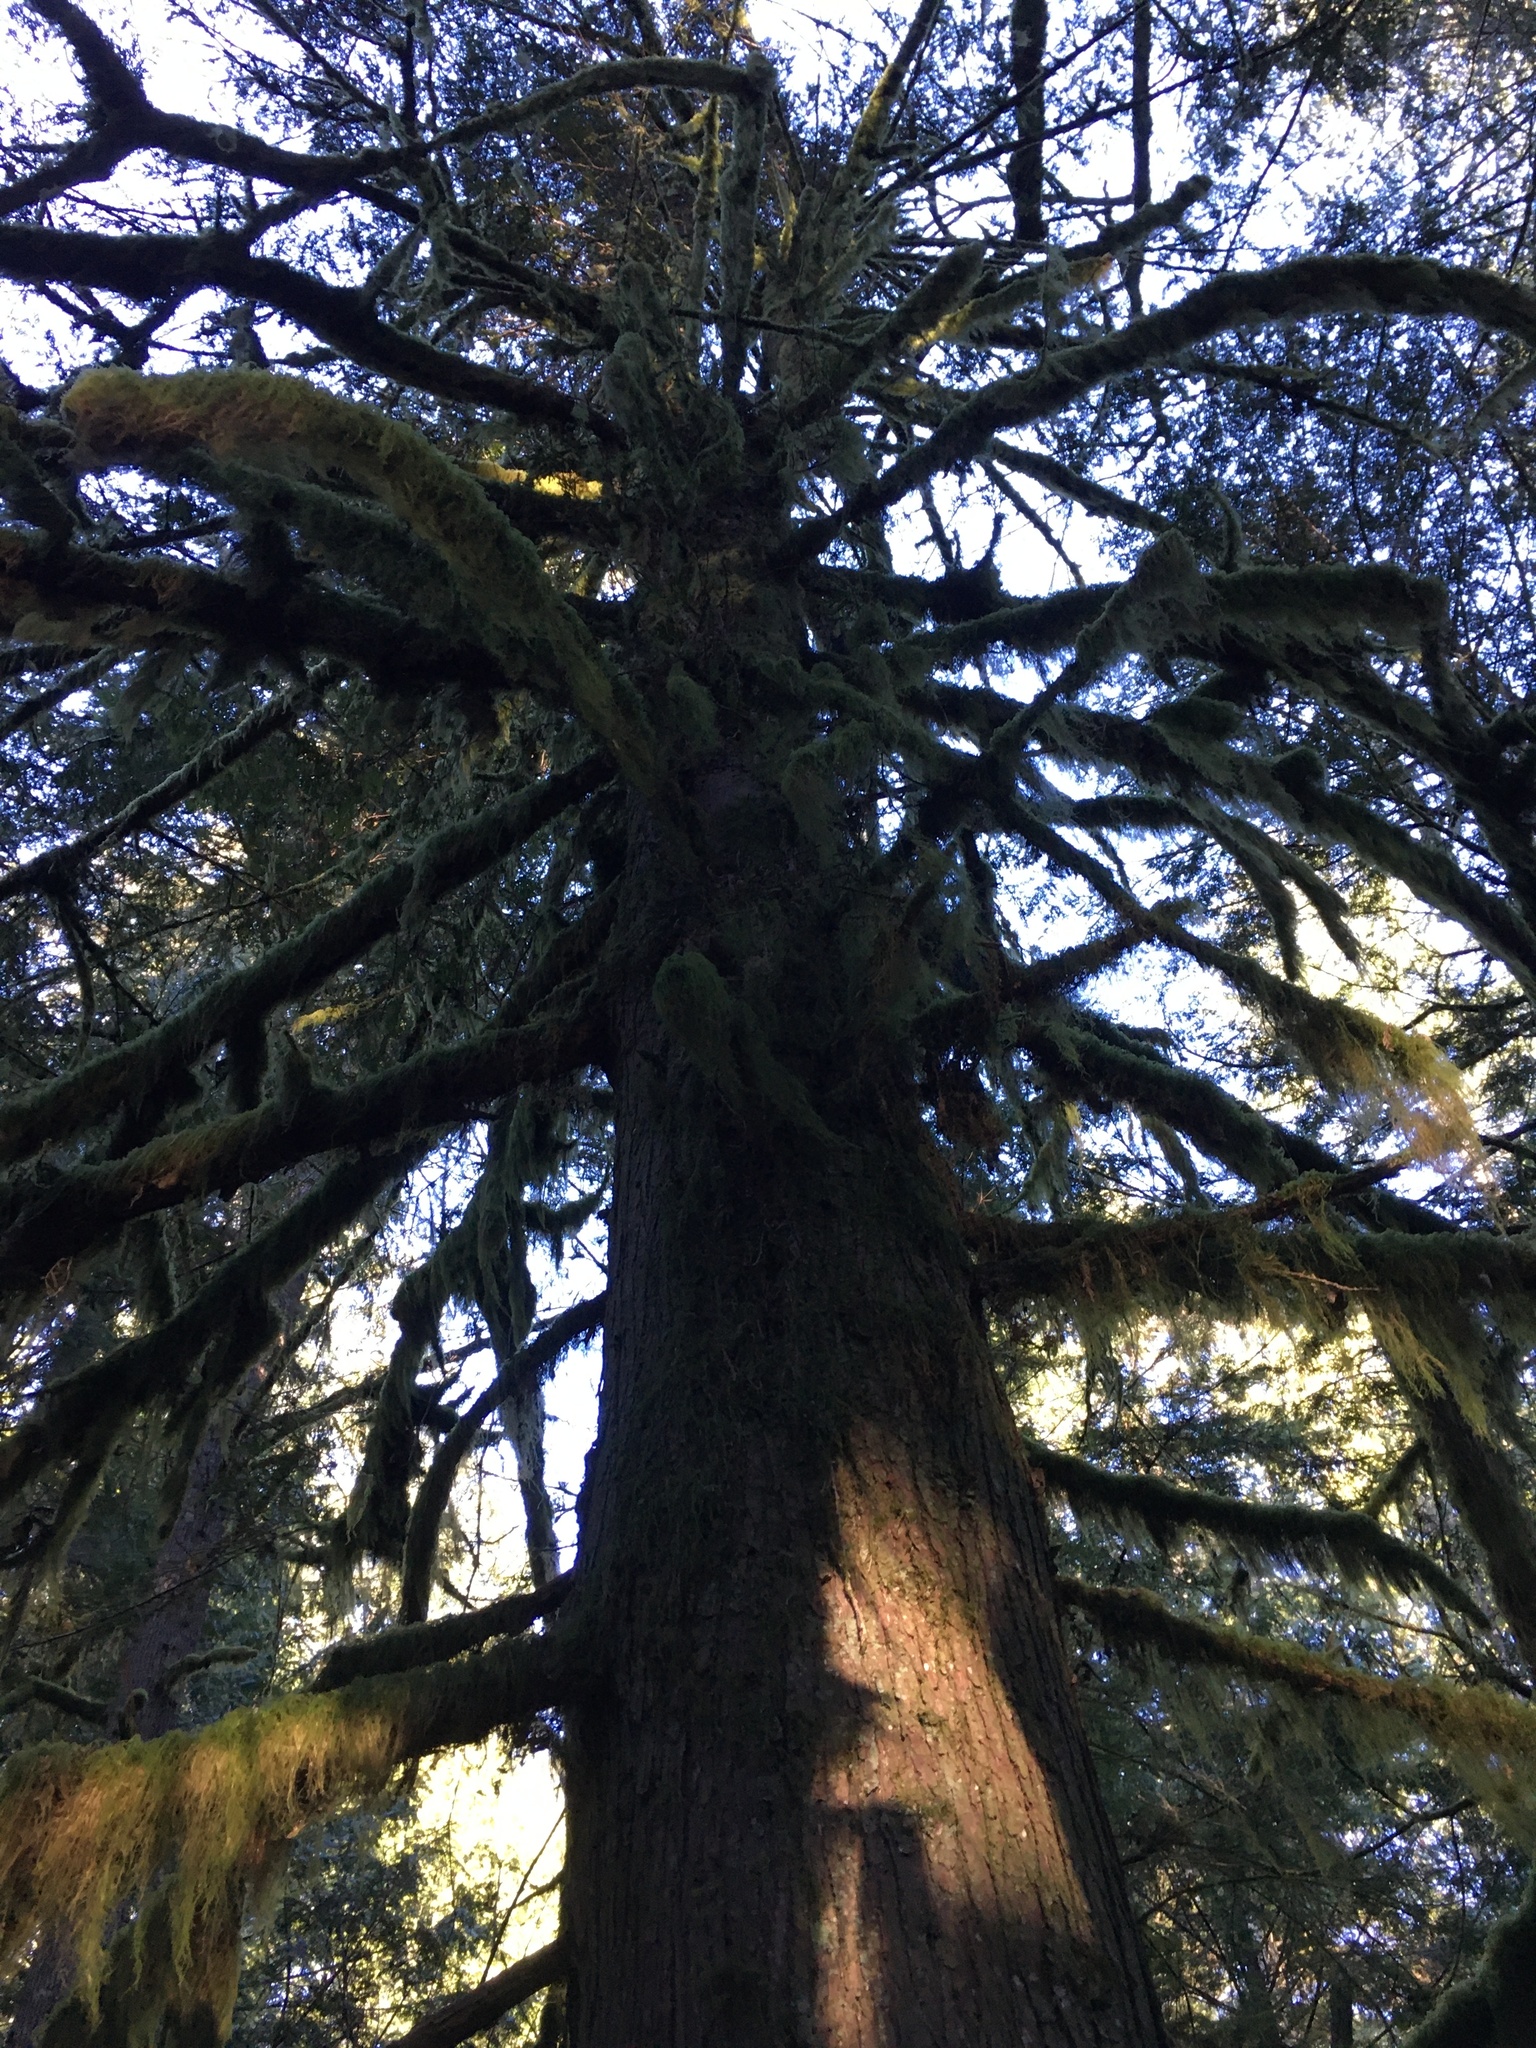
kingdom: Plantae
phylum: Tracheophyta
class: Pinopsida
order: Pinales
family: Cupressaceae
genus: Thuja
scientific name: Thuja plicata
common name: Western red-cedar
